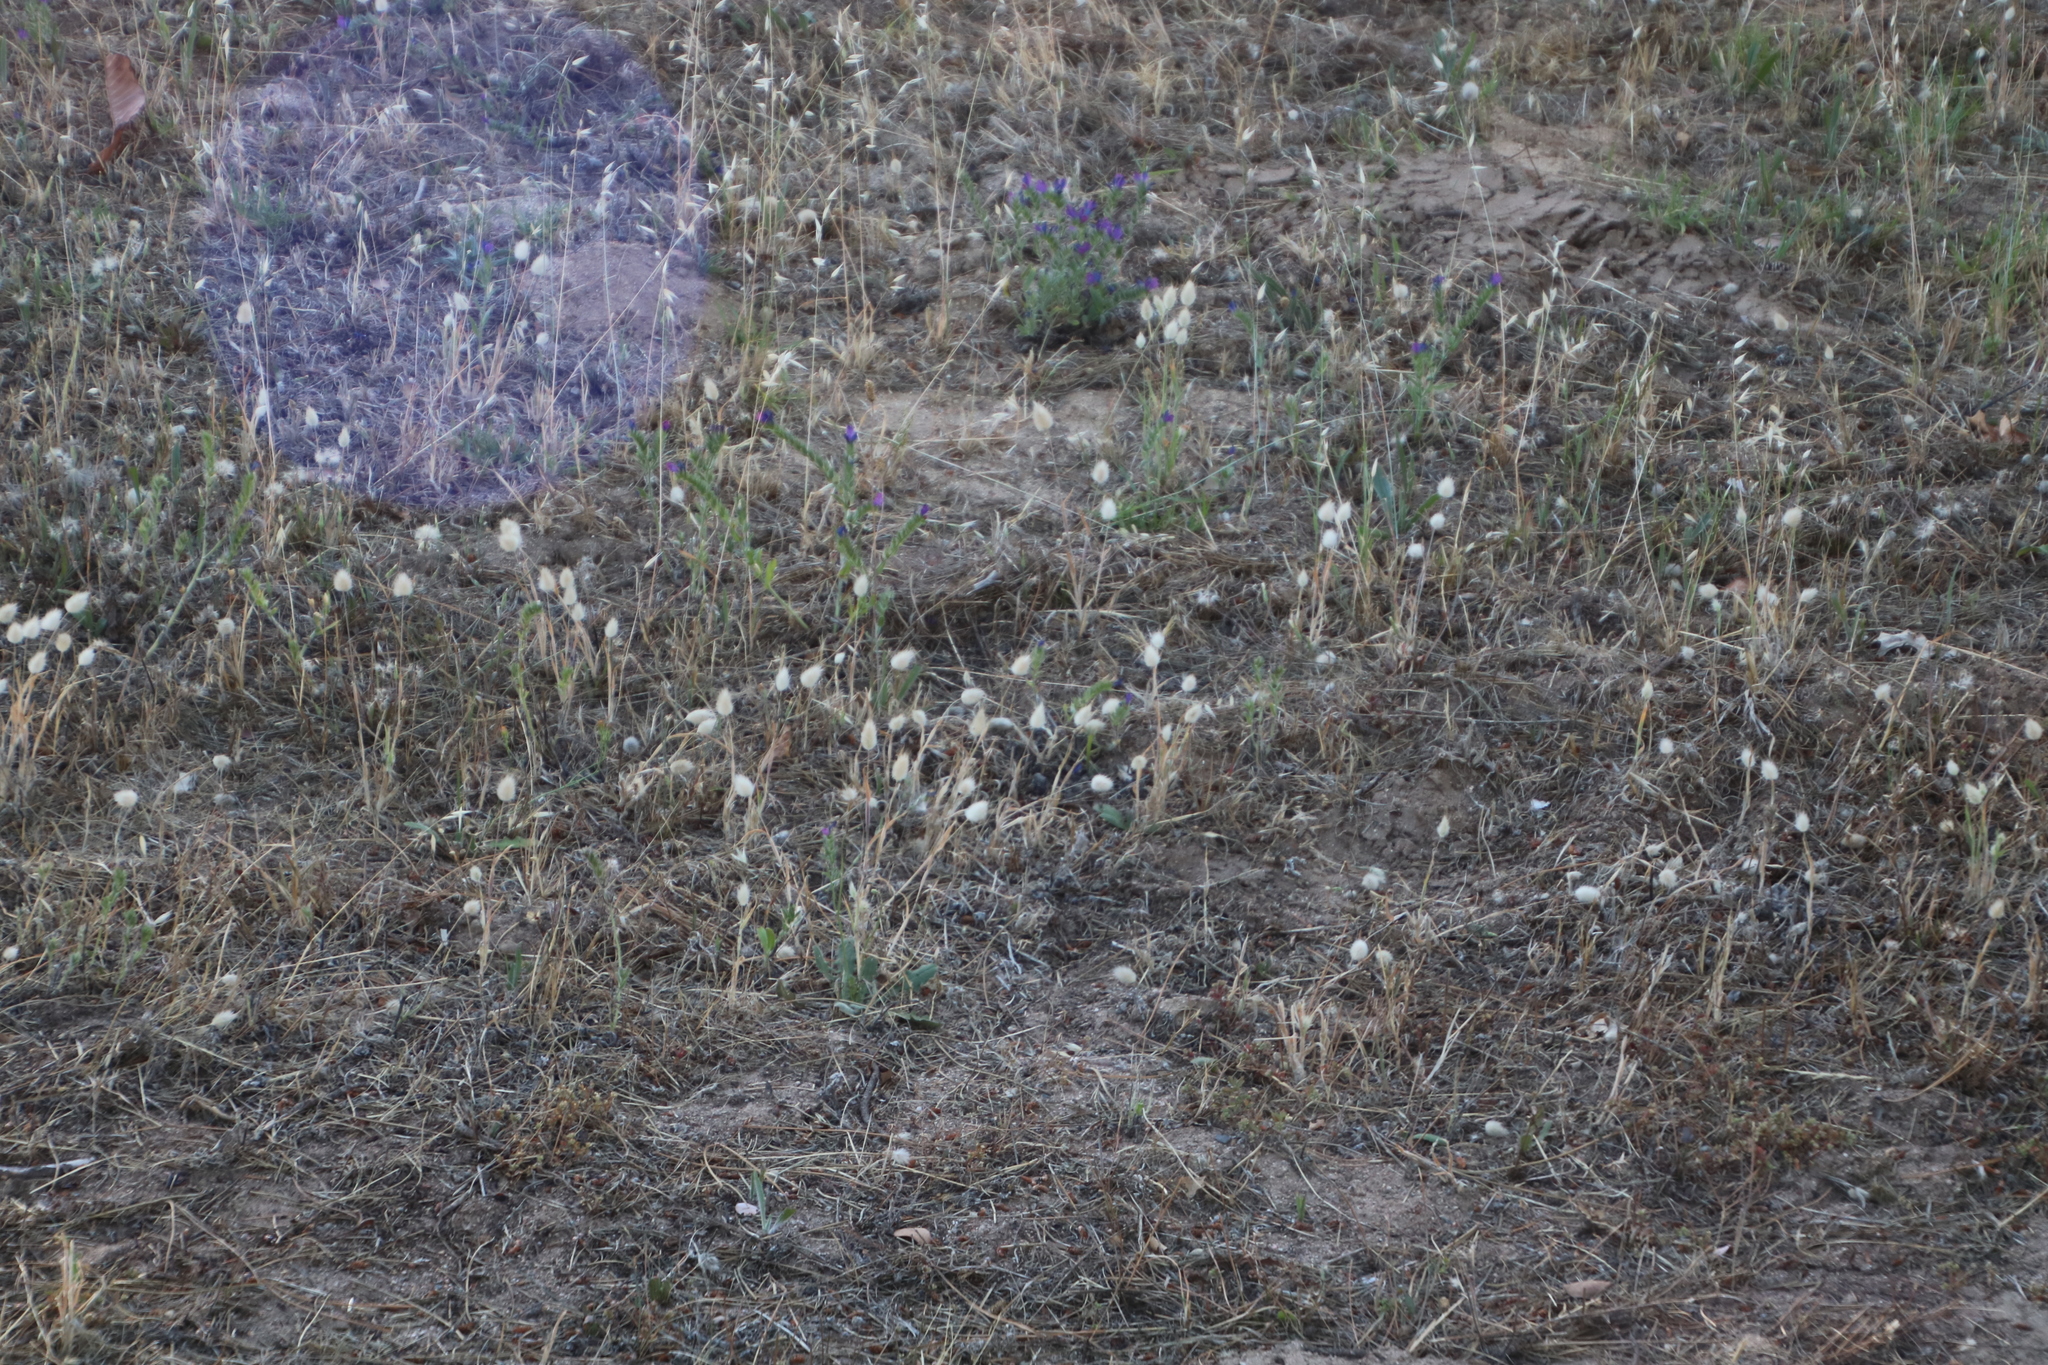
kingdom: Plantae
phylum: Tracheophyta
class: Liliopsida
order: Poales
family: Poaceae
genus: Lagurus
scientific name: Lagurus ovatus
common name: Hare's-tail
